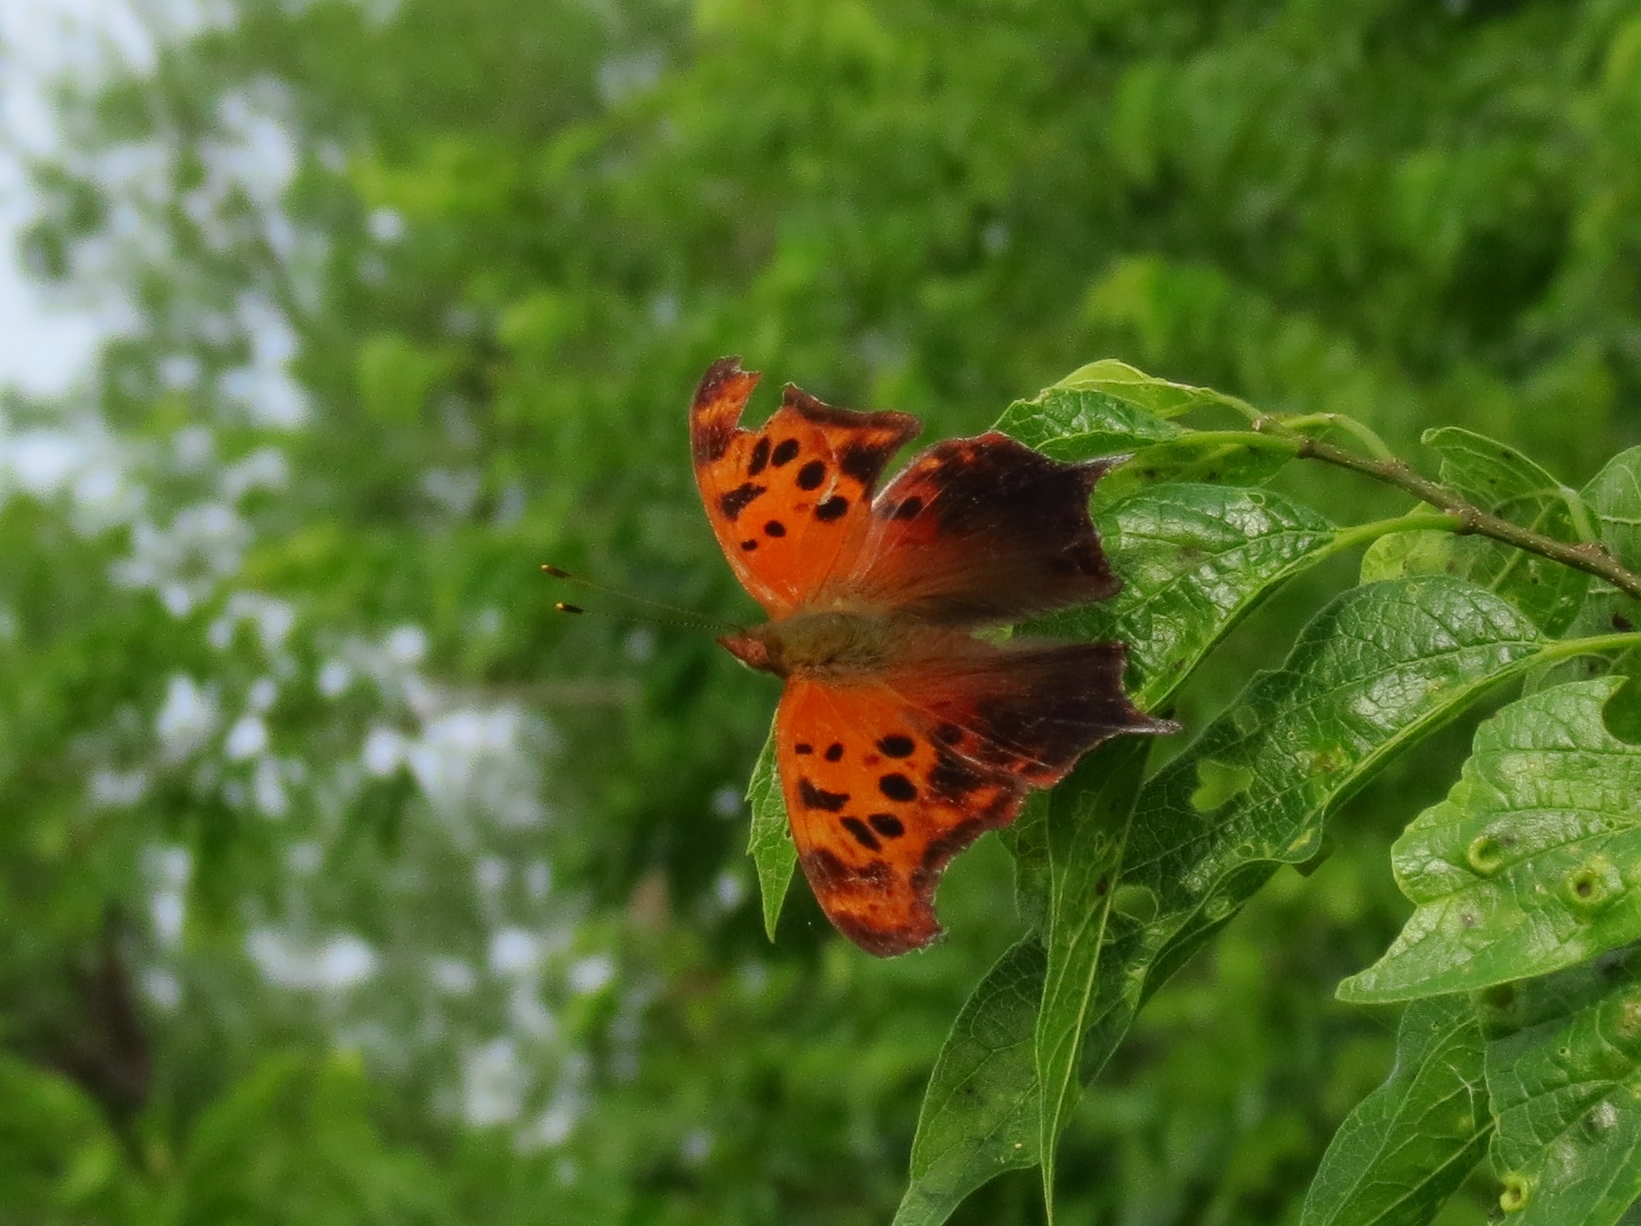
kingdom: Animalia
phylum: Arthropoda
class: Insecta
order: Lepidoptera
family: Nymphalidae
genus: Polygonia
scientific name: Polygonia interrogationis
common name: Question mark
